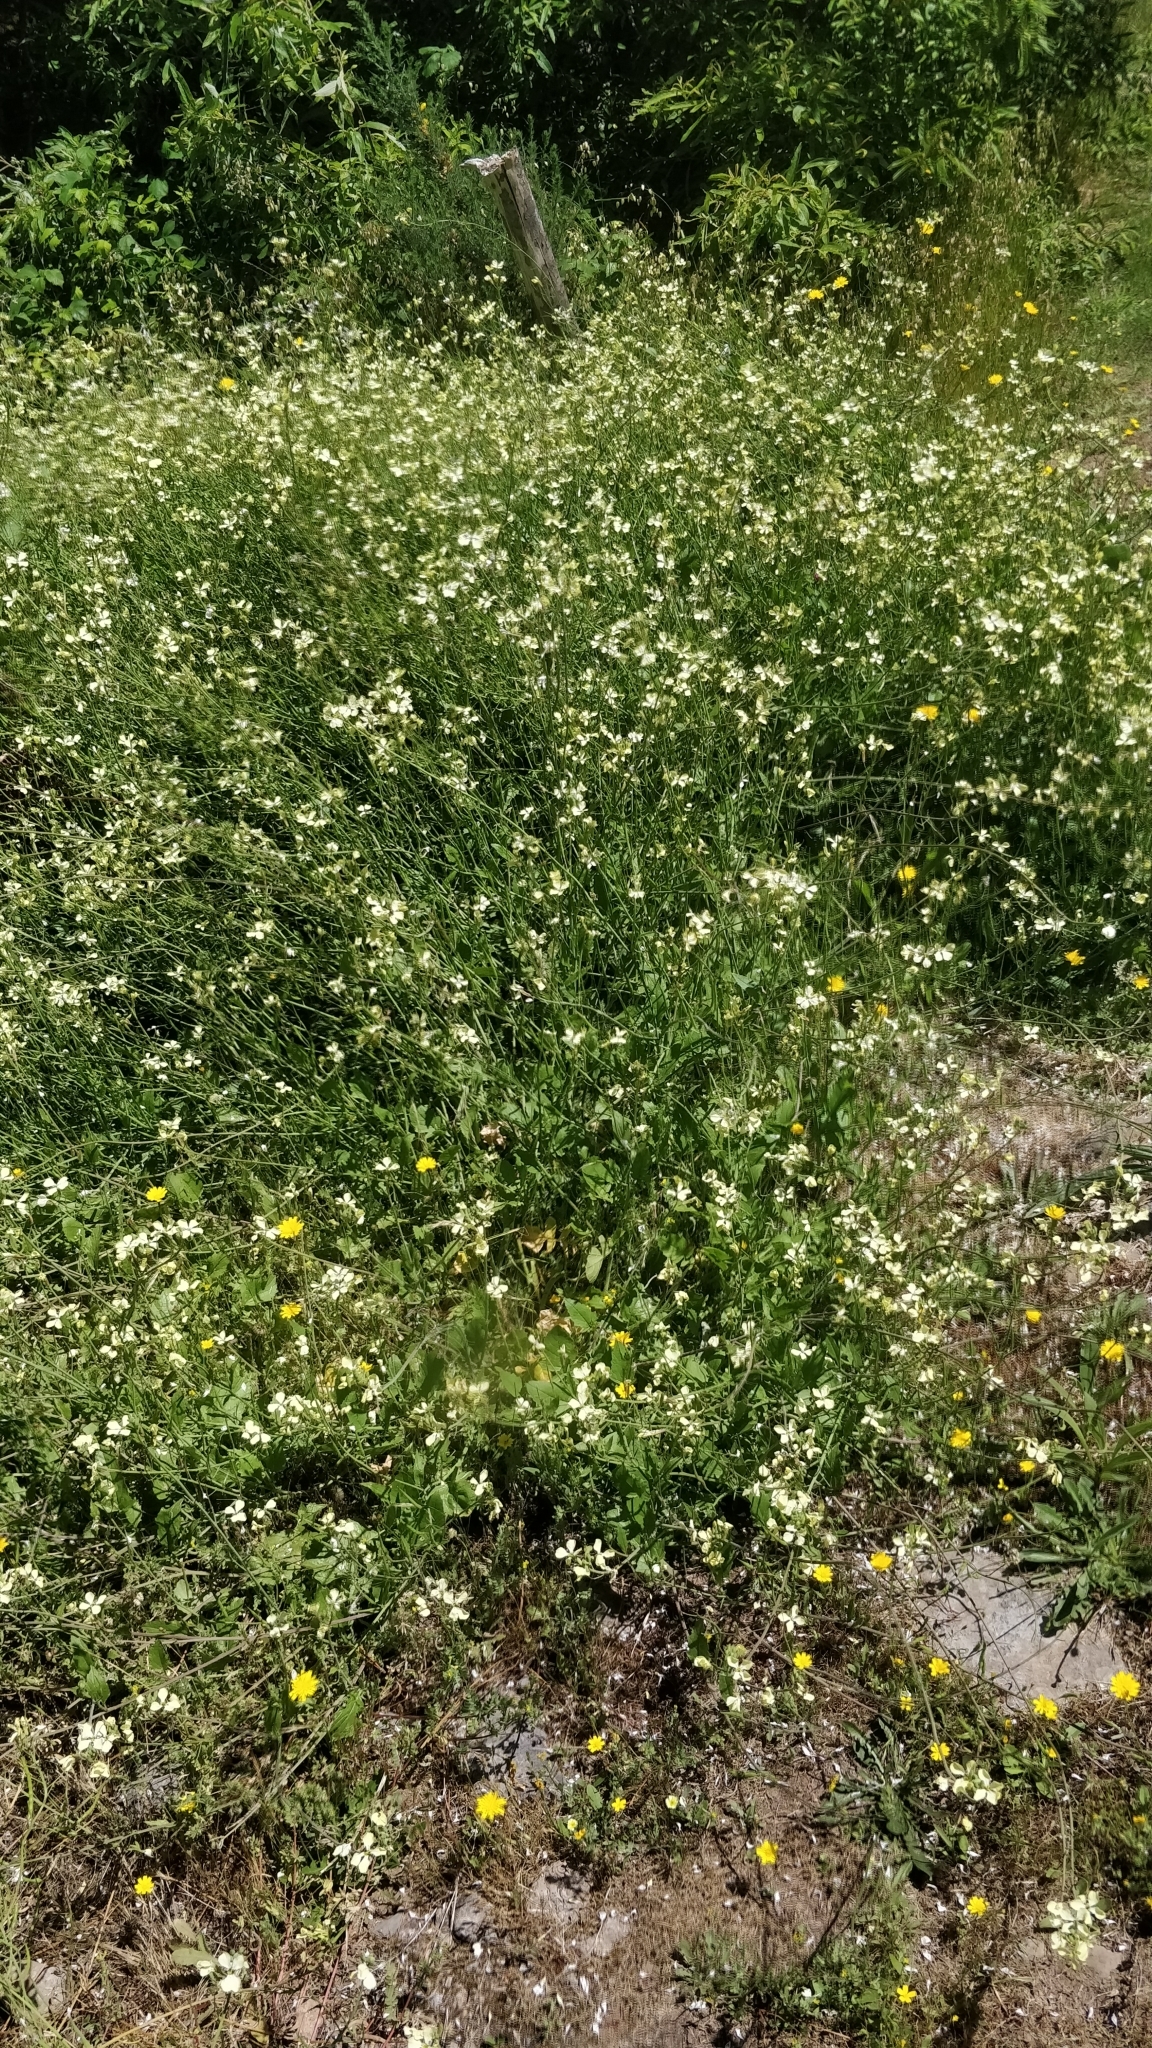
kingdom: Plantae
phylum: Tracheophyta
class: Magnoliopsida
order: Brassicales
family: Brassicaceae
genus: Raphanus
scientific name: Raphanus raphanistrum
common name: Wild radish
